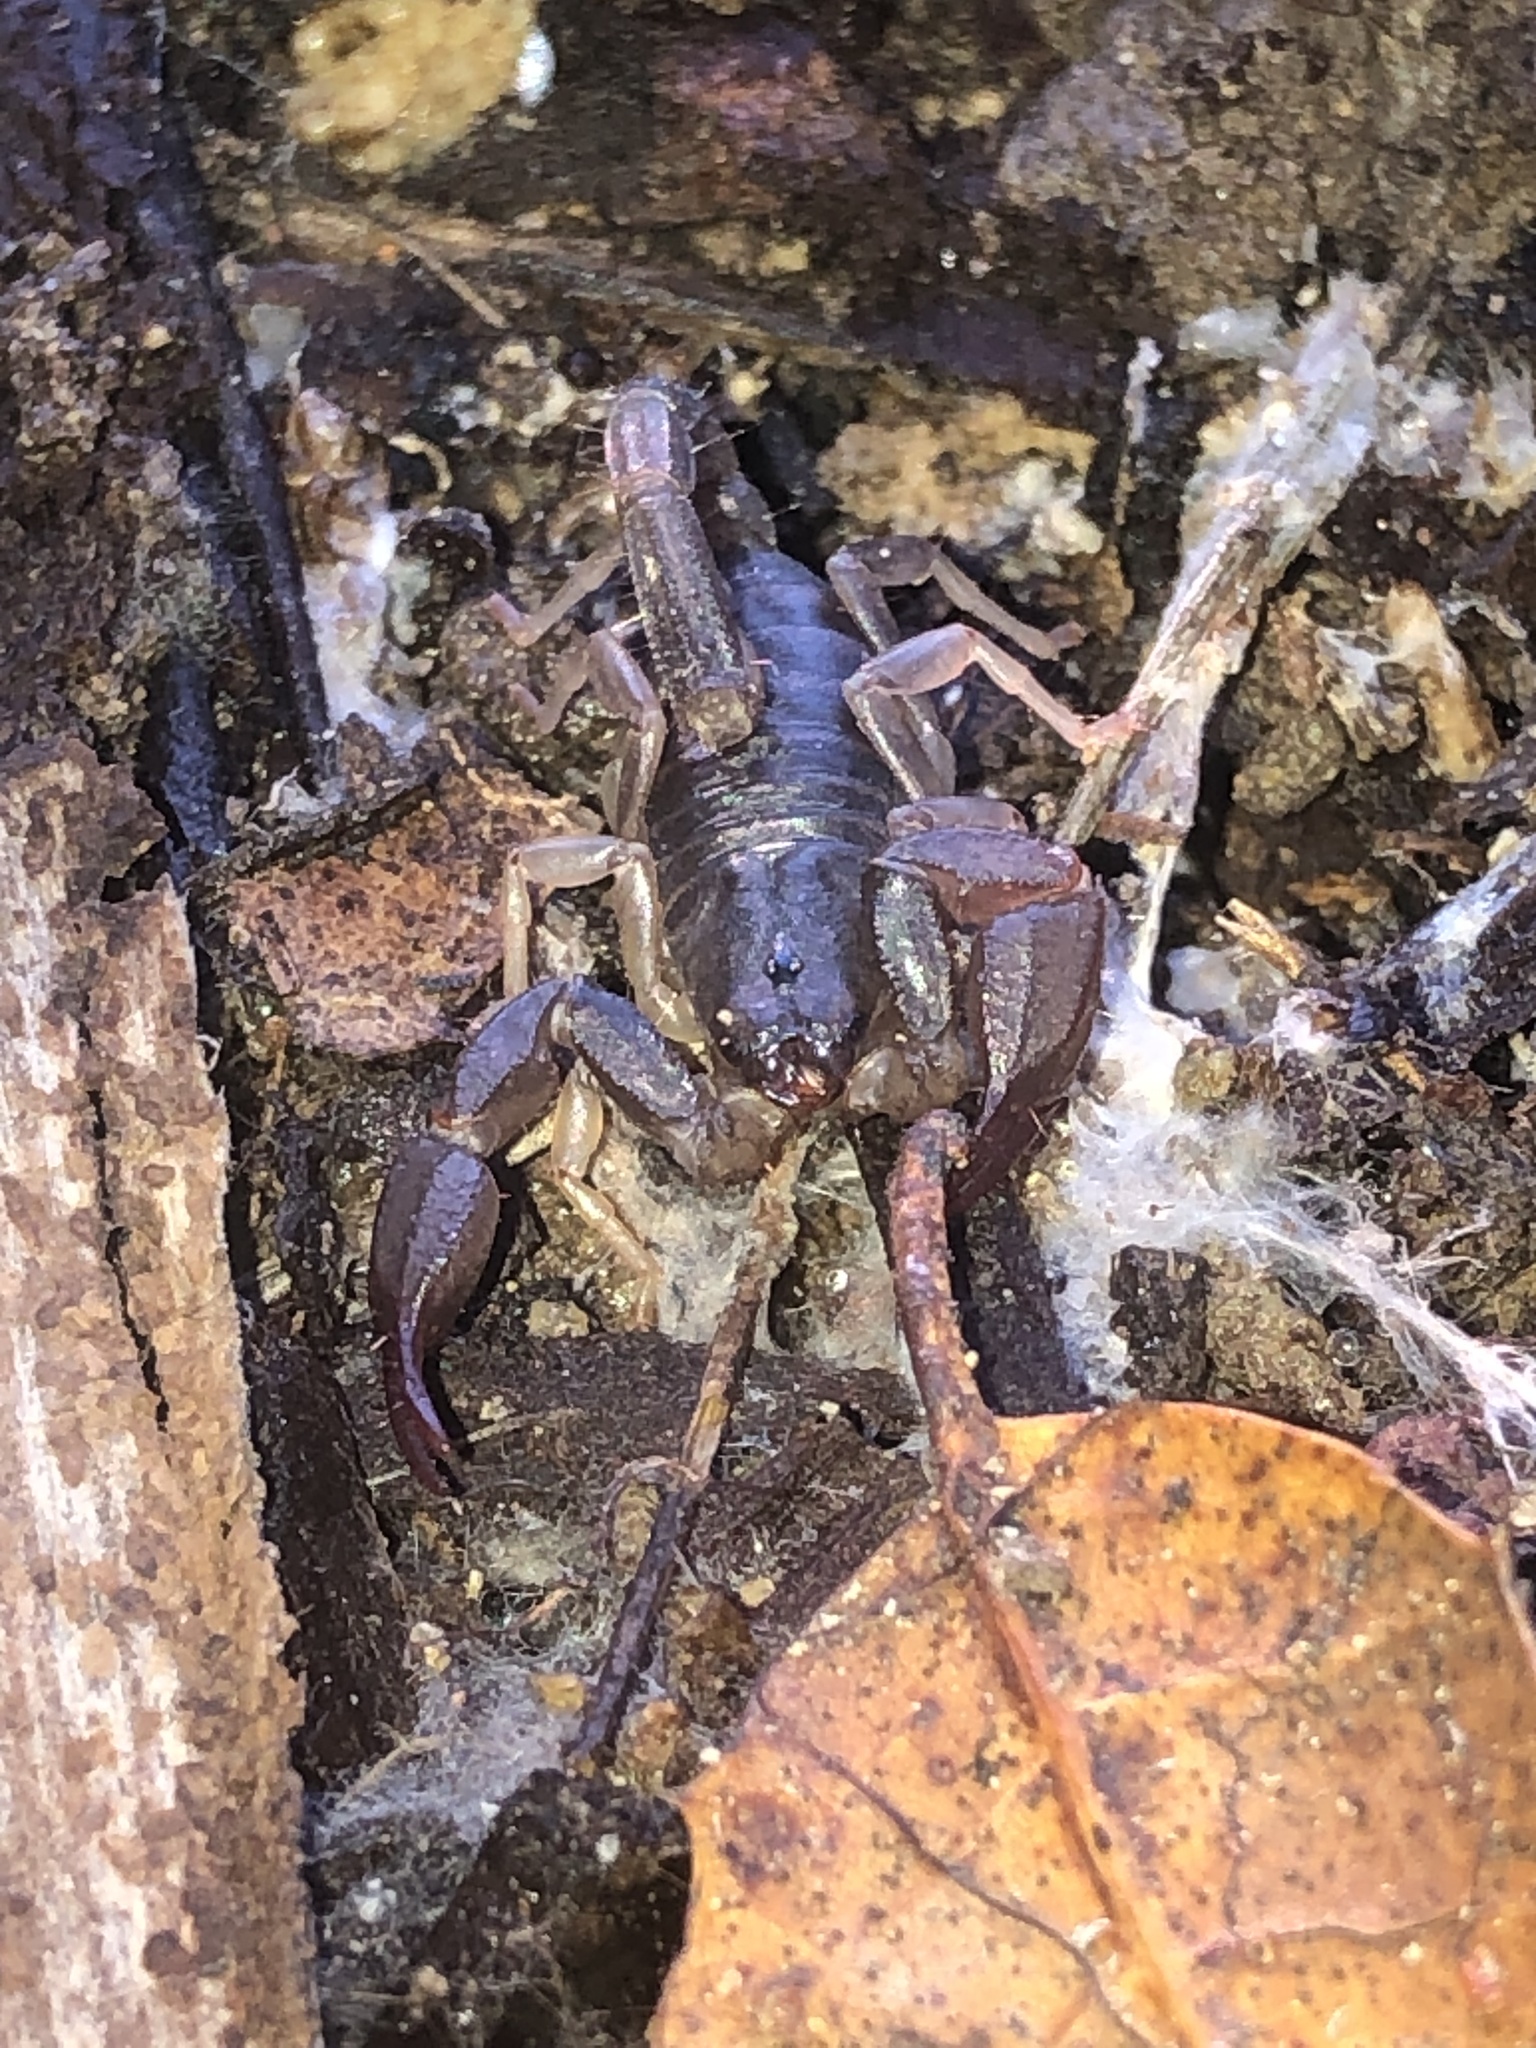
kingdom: Animalia
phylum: Arthropoda
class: Arachnida
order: Scorpiones
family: Chactidae
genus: Uroctonus
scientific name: Uroctonus mordax
